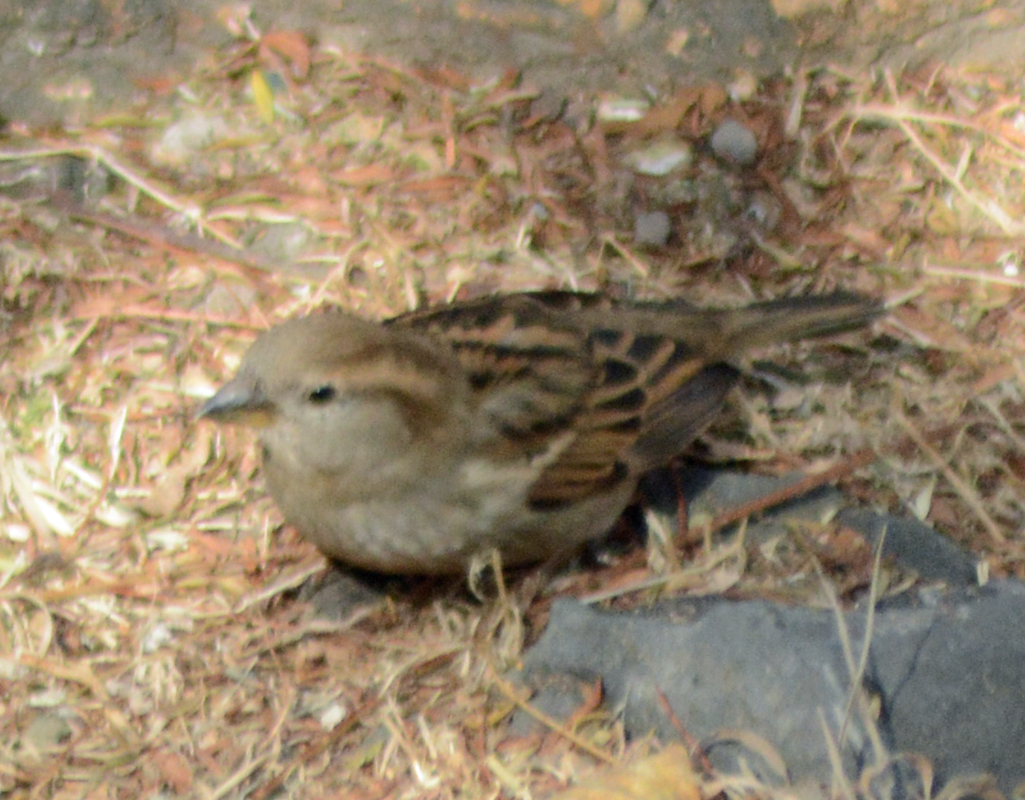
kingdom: Animalia
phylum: Chordata
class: Aves
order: Passeriformes
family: Passeridae
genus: Passer
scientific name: Passer domesticus
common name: House sparrow
